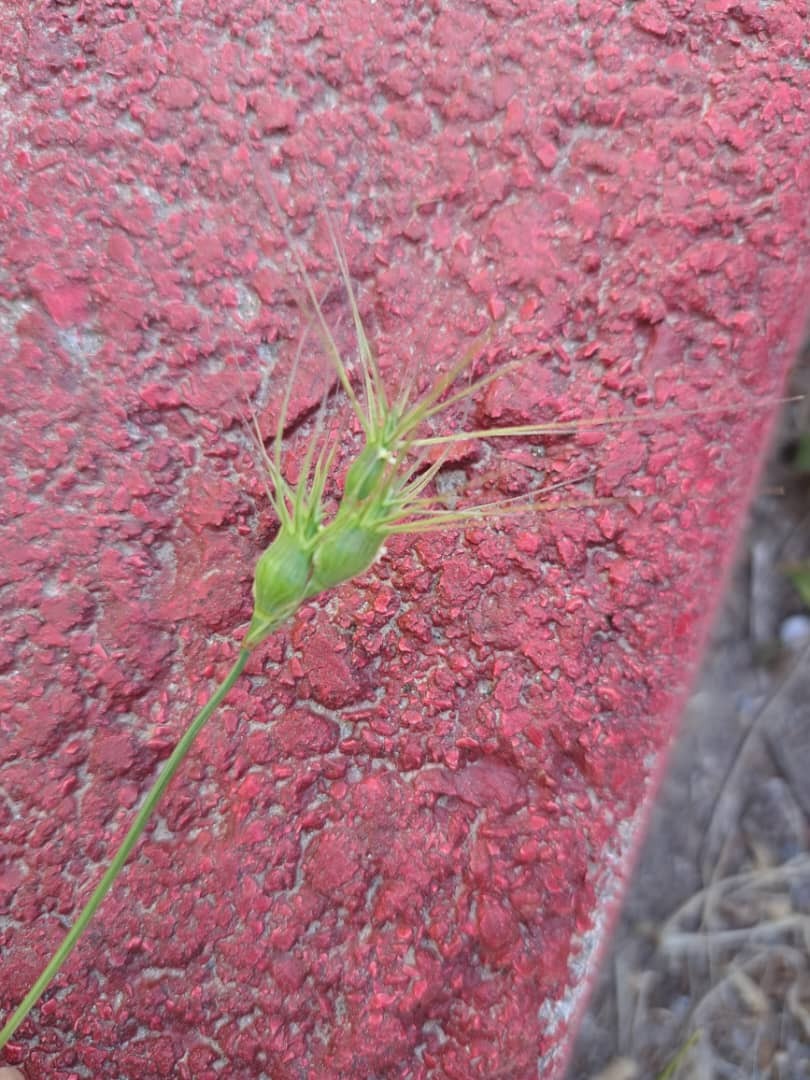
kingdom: Plantae
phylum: Tracheophyta
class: Liliopsida
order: Poales
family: Poaceae
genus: Aegilops
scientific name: Aegilops neglecta
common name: Three-awn goat grass
